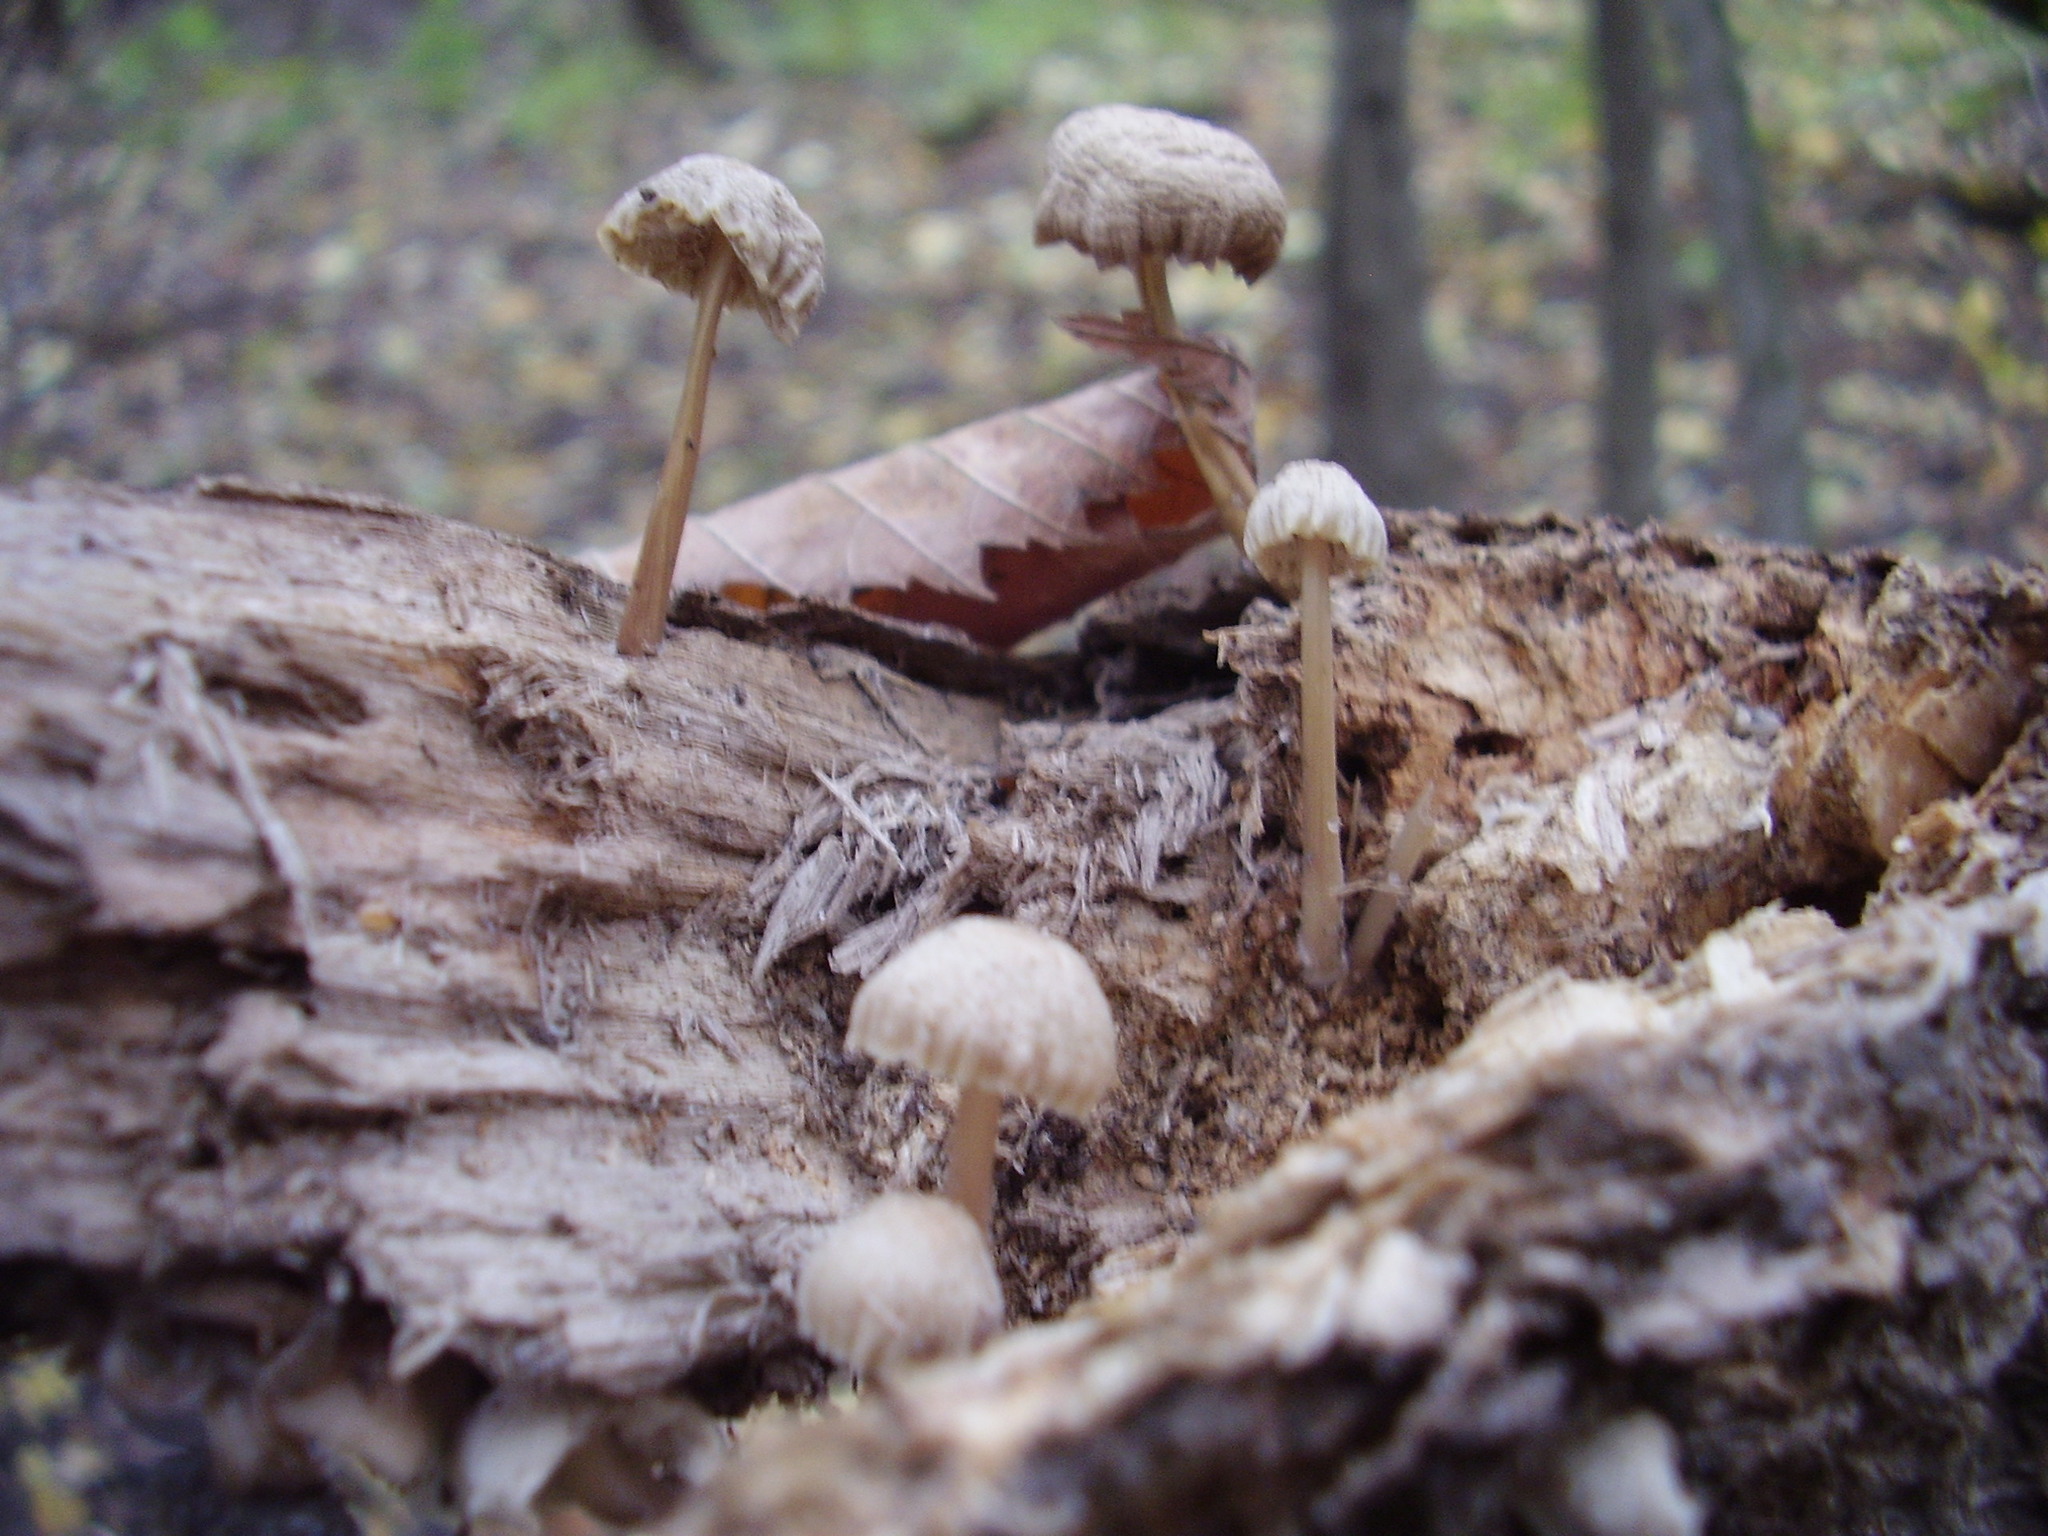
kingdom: Fungi
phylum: Basidiomycota
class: Agaricomycetes
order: Agaricales
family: Mycenaceae
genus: Mycena
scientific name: Mycena galericulata
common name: Bonnet mycena
